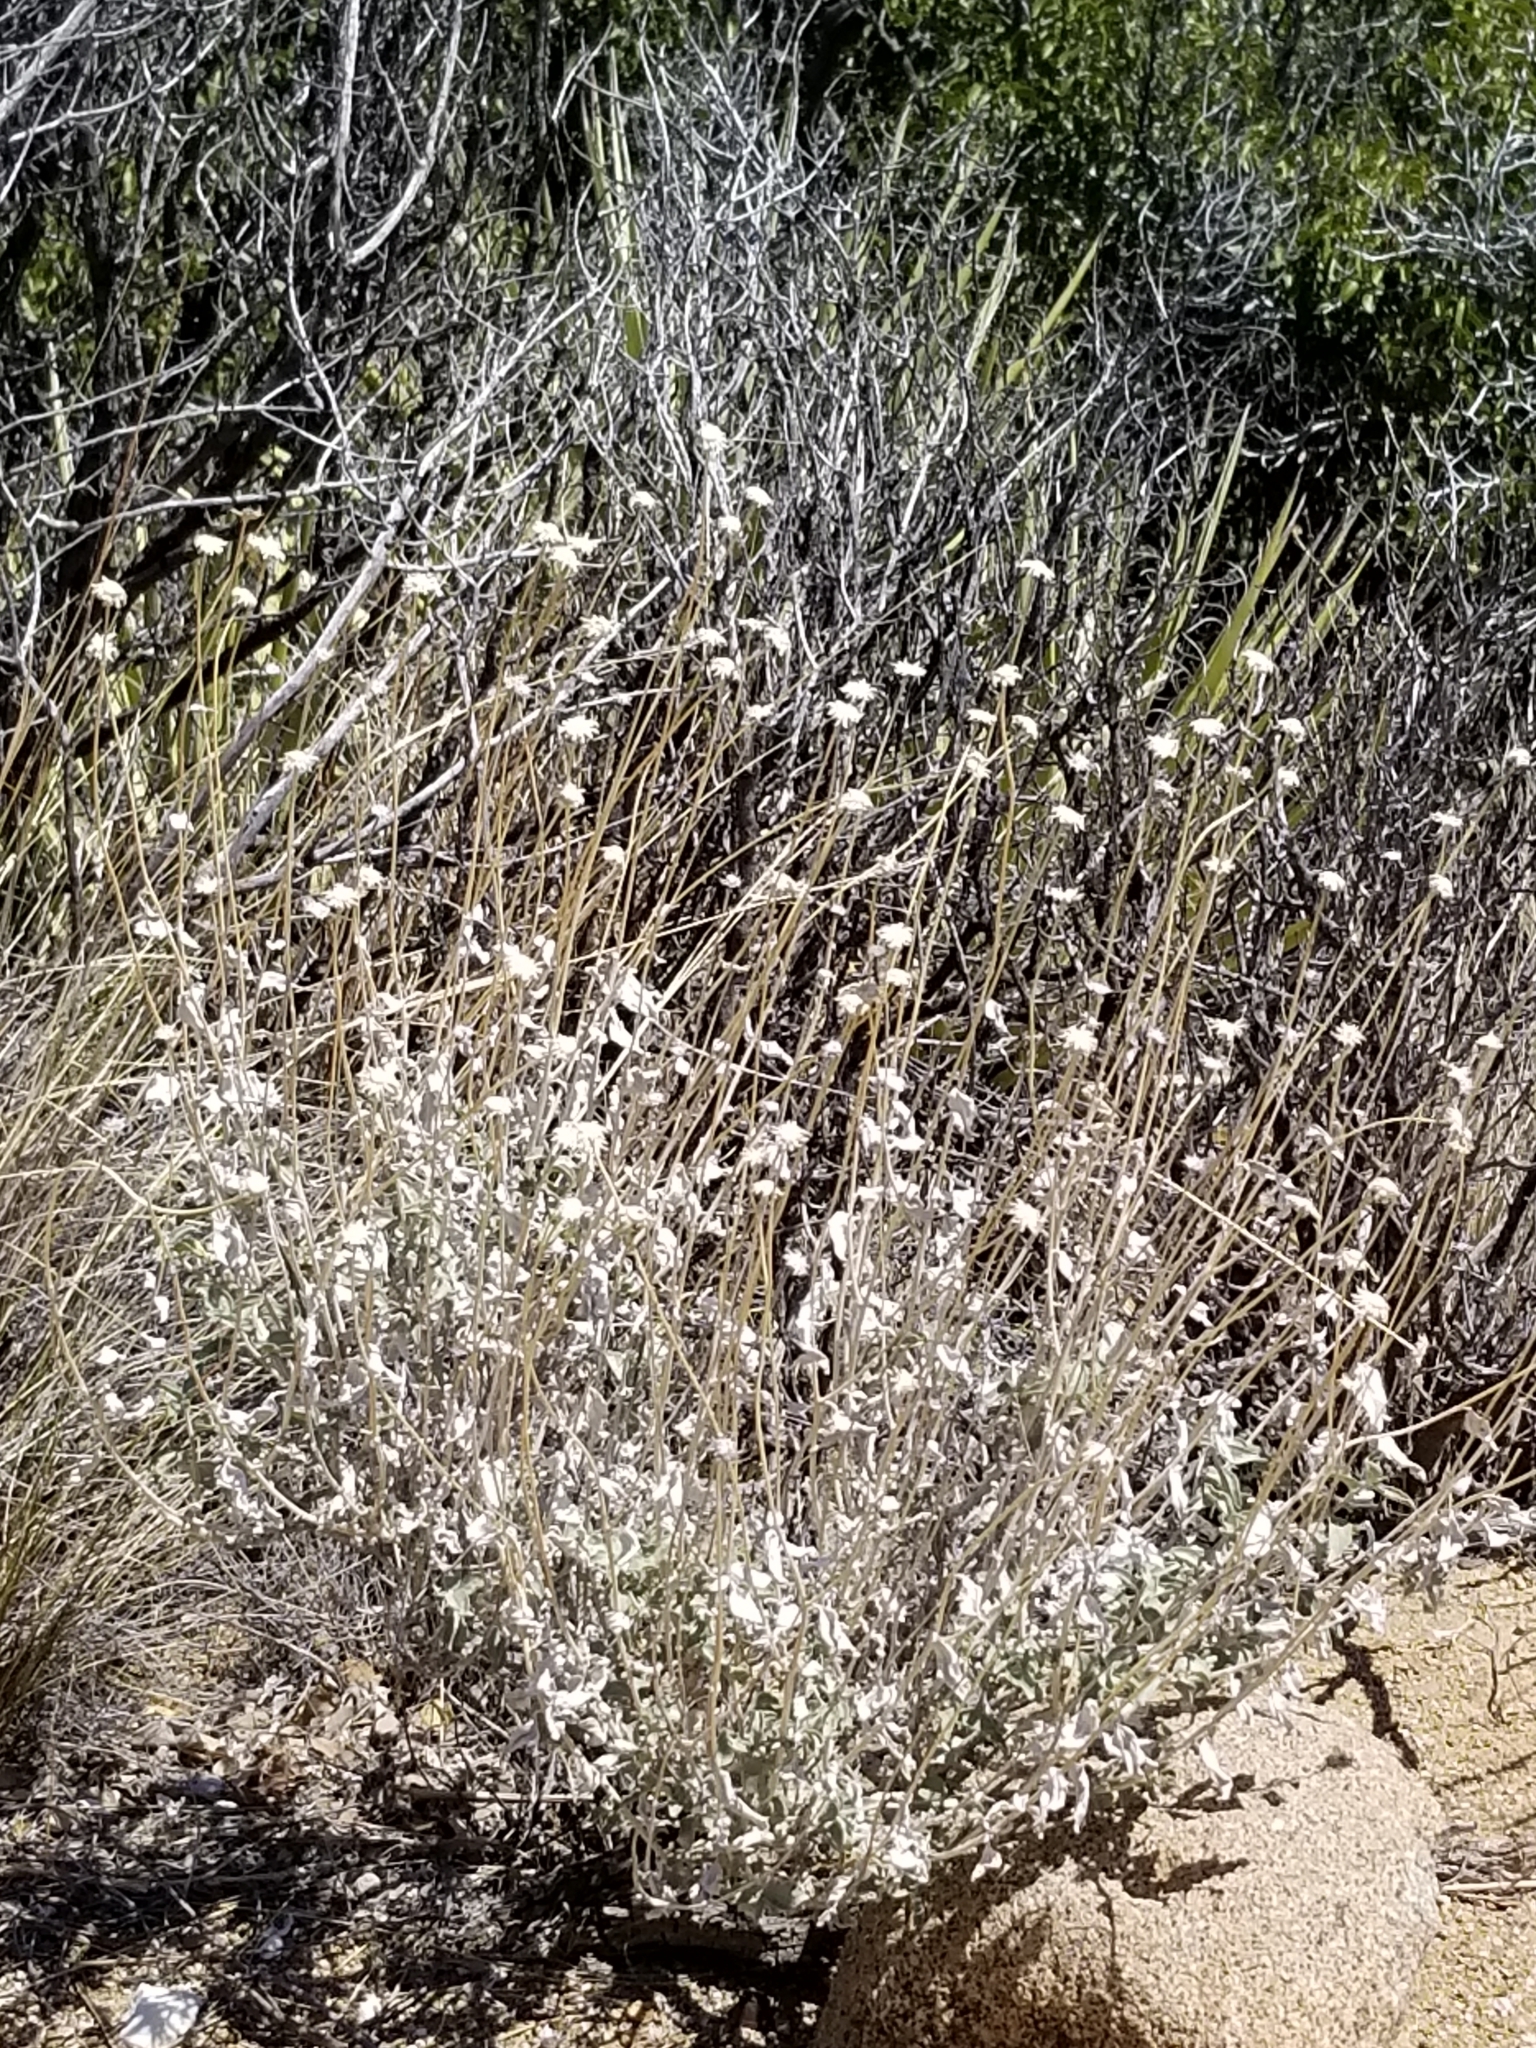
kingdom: Plantae
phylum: Tracheophyta
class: Magnoliopsida
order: Asterales
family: Asteraceae
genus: Encelia
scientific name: Encelia actoni
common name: Acton encelia
